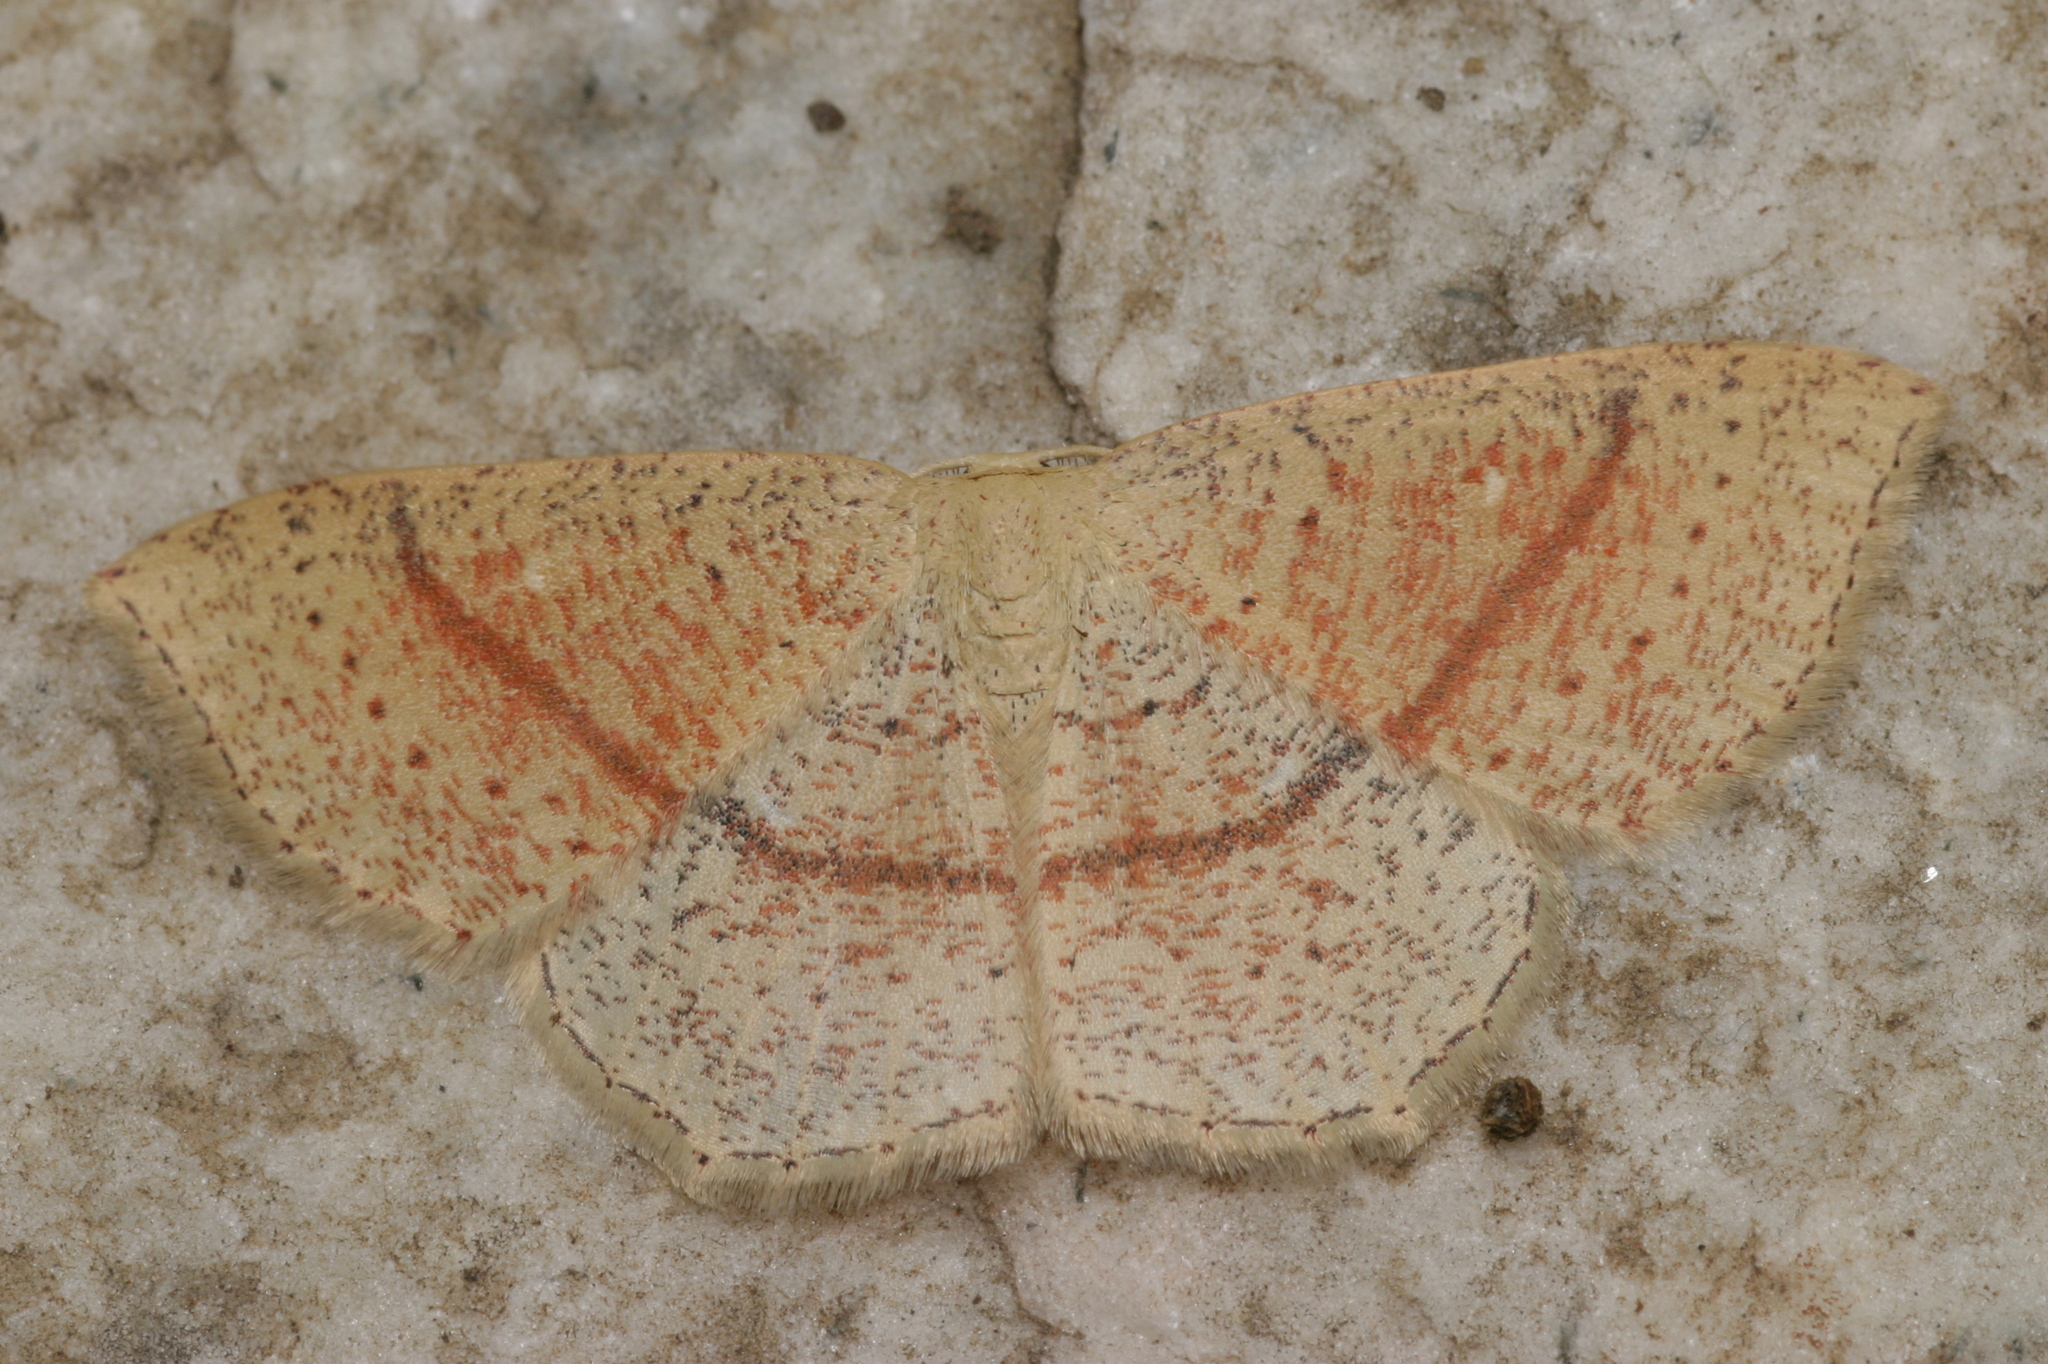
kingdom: Animalia
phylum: Arthropoda
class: Insecta
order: Lepidoptera
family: Geometridae
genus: Cyclophora
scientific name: Cyclophora punctaria
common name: Maiden's blush
